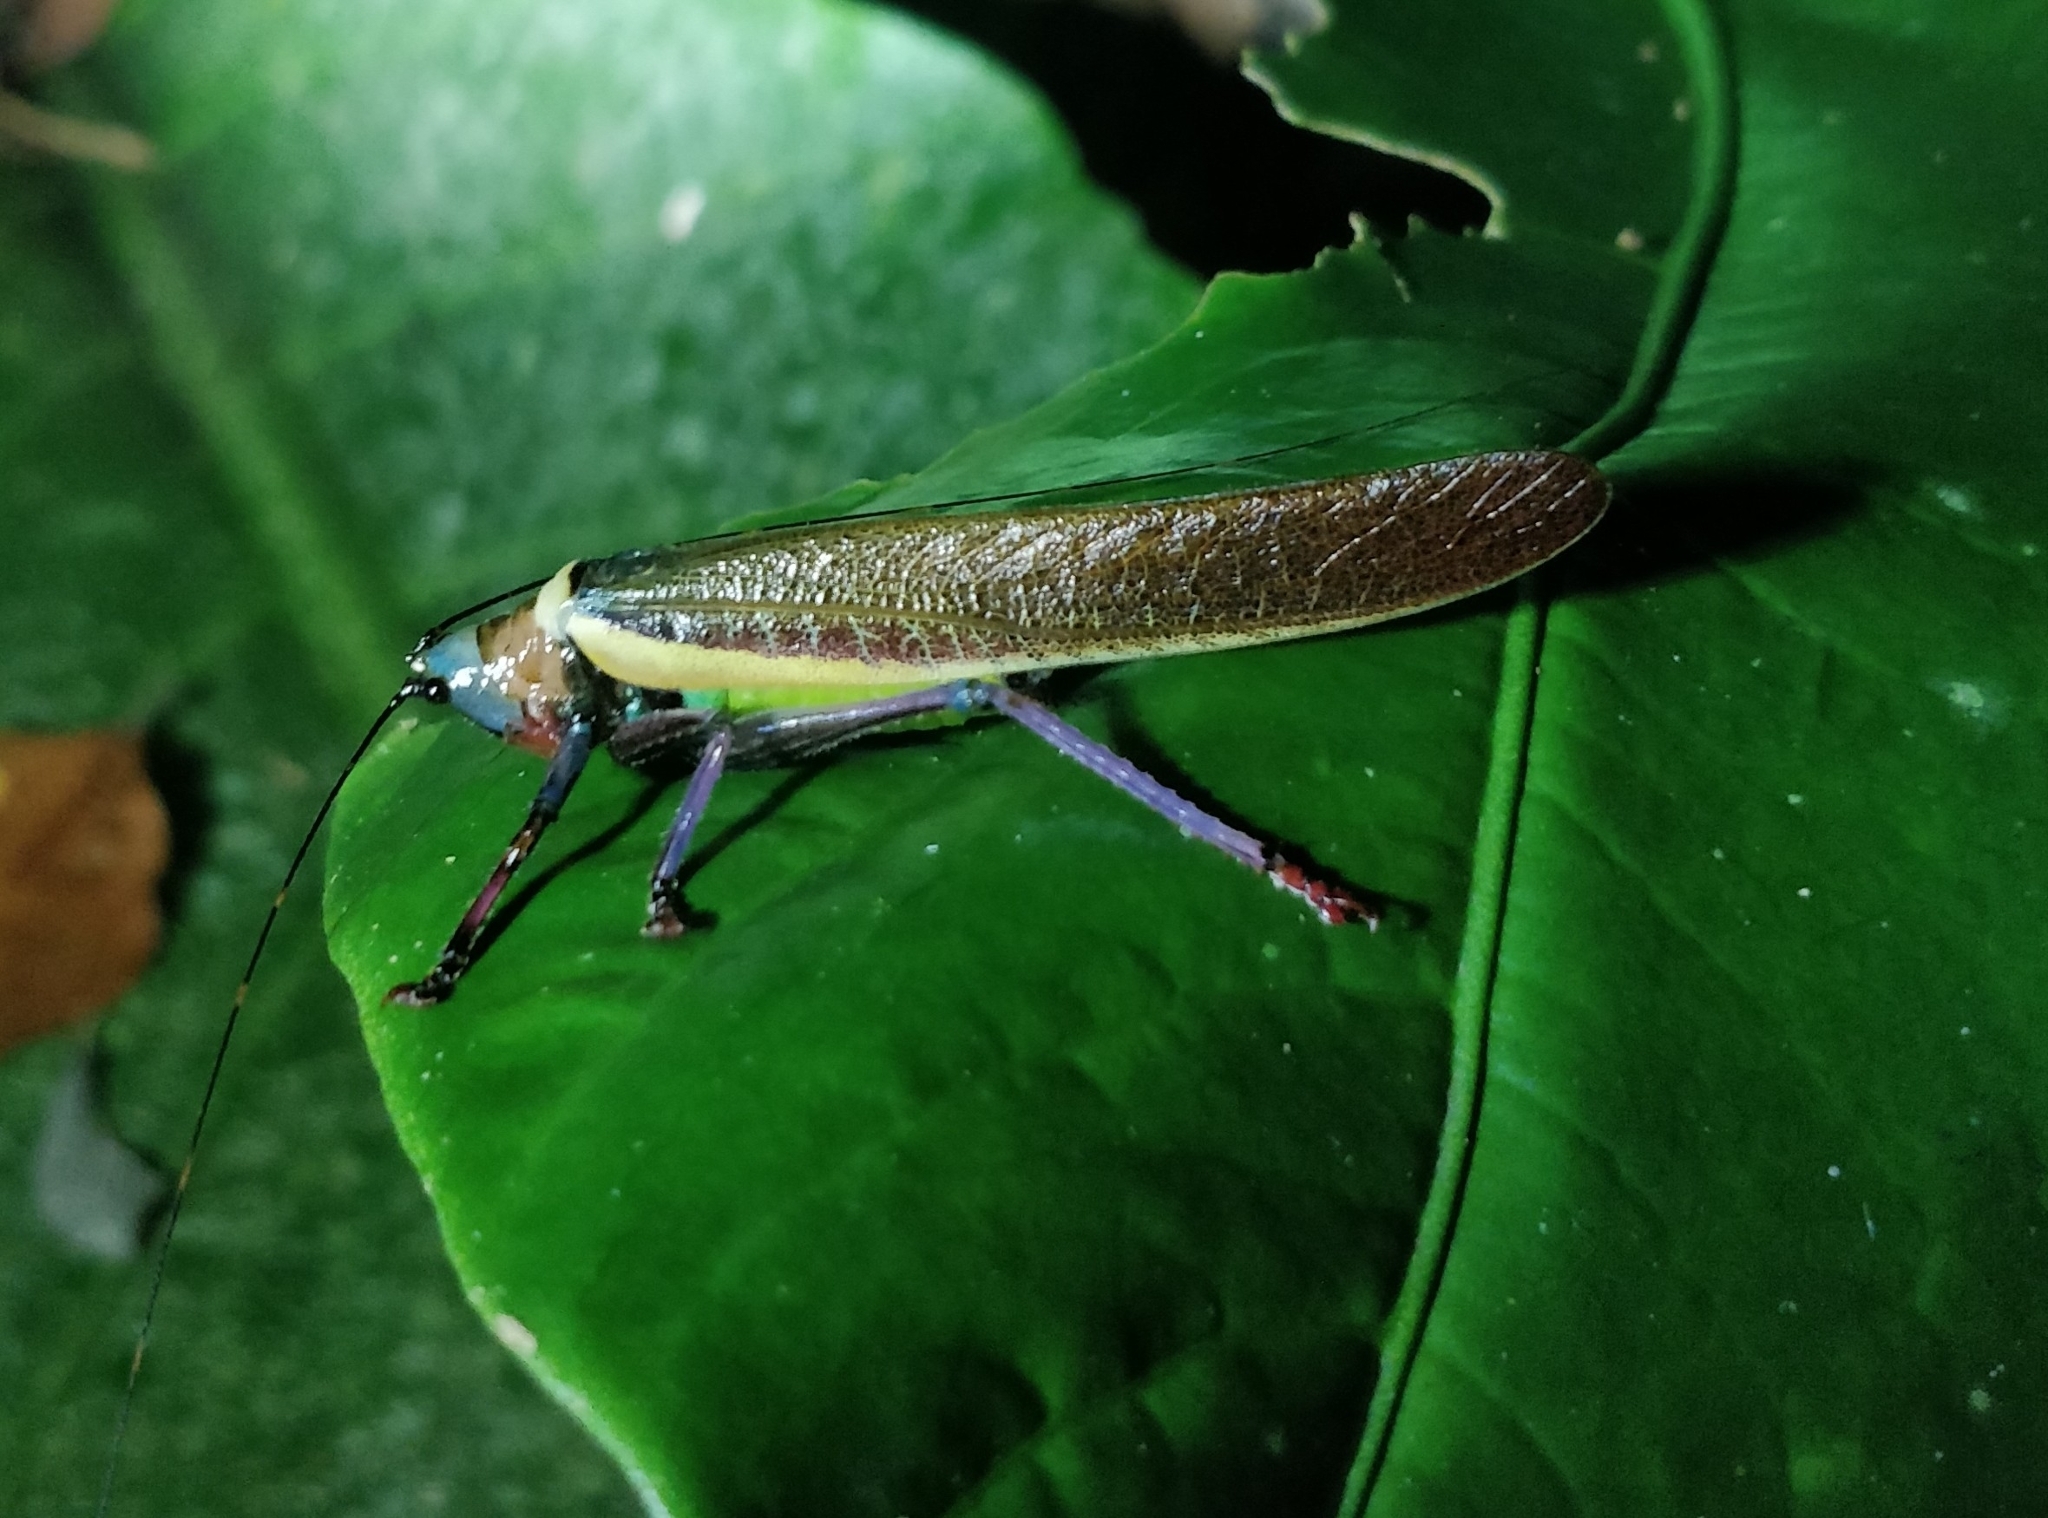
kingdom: Animalia
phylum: Arthropoda
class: Insecta
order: Orthoptera
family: Tettigoniidae
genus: Moncheca
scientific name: Moncheca pretiosa
